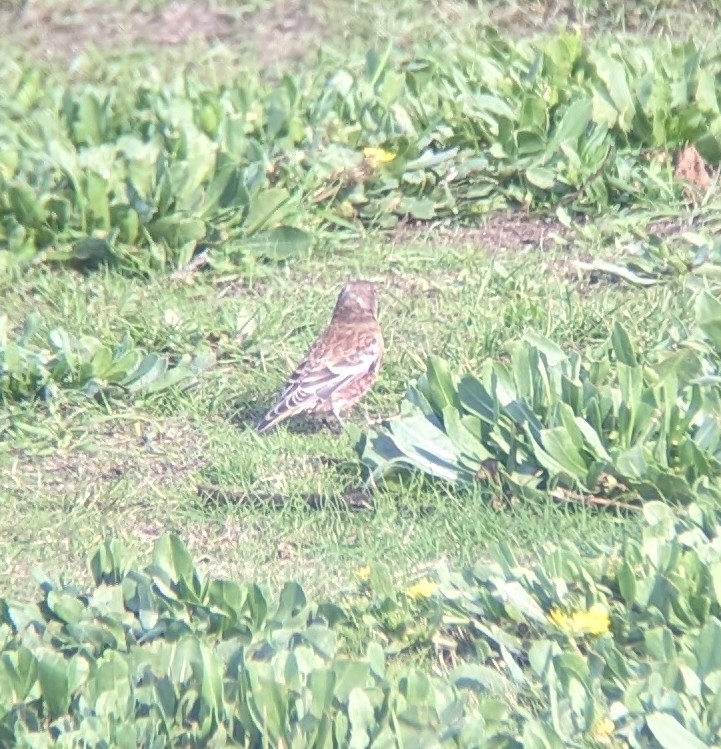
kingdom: Animalia
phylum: Chordata
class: Aves
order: Passeriformes
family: Fringillidae
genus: Leucosticte
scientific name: Leucosticte tephrocotis
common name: Gray-crowned rosy-finch
